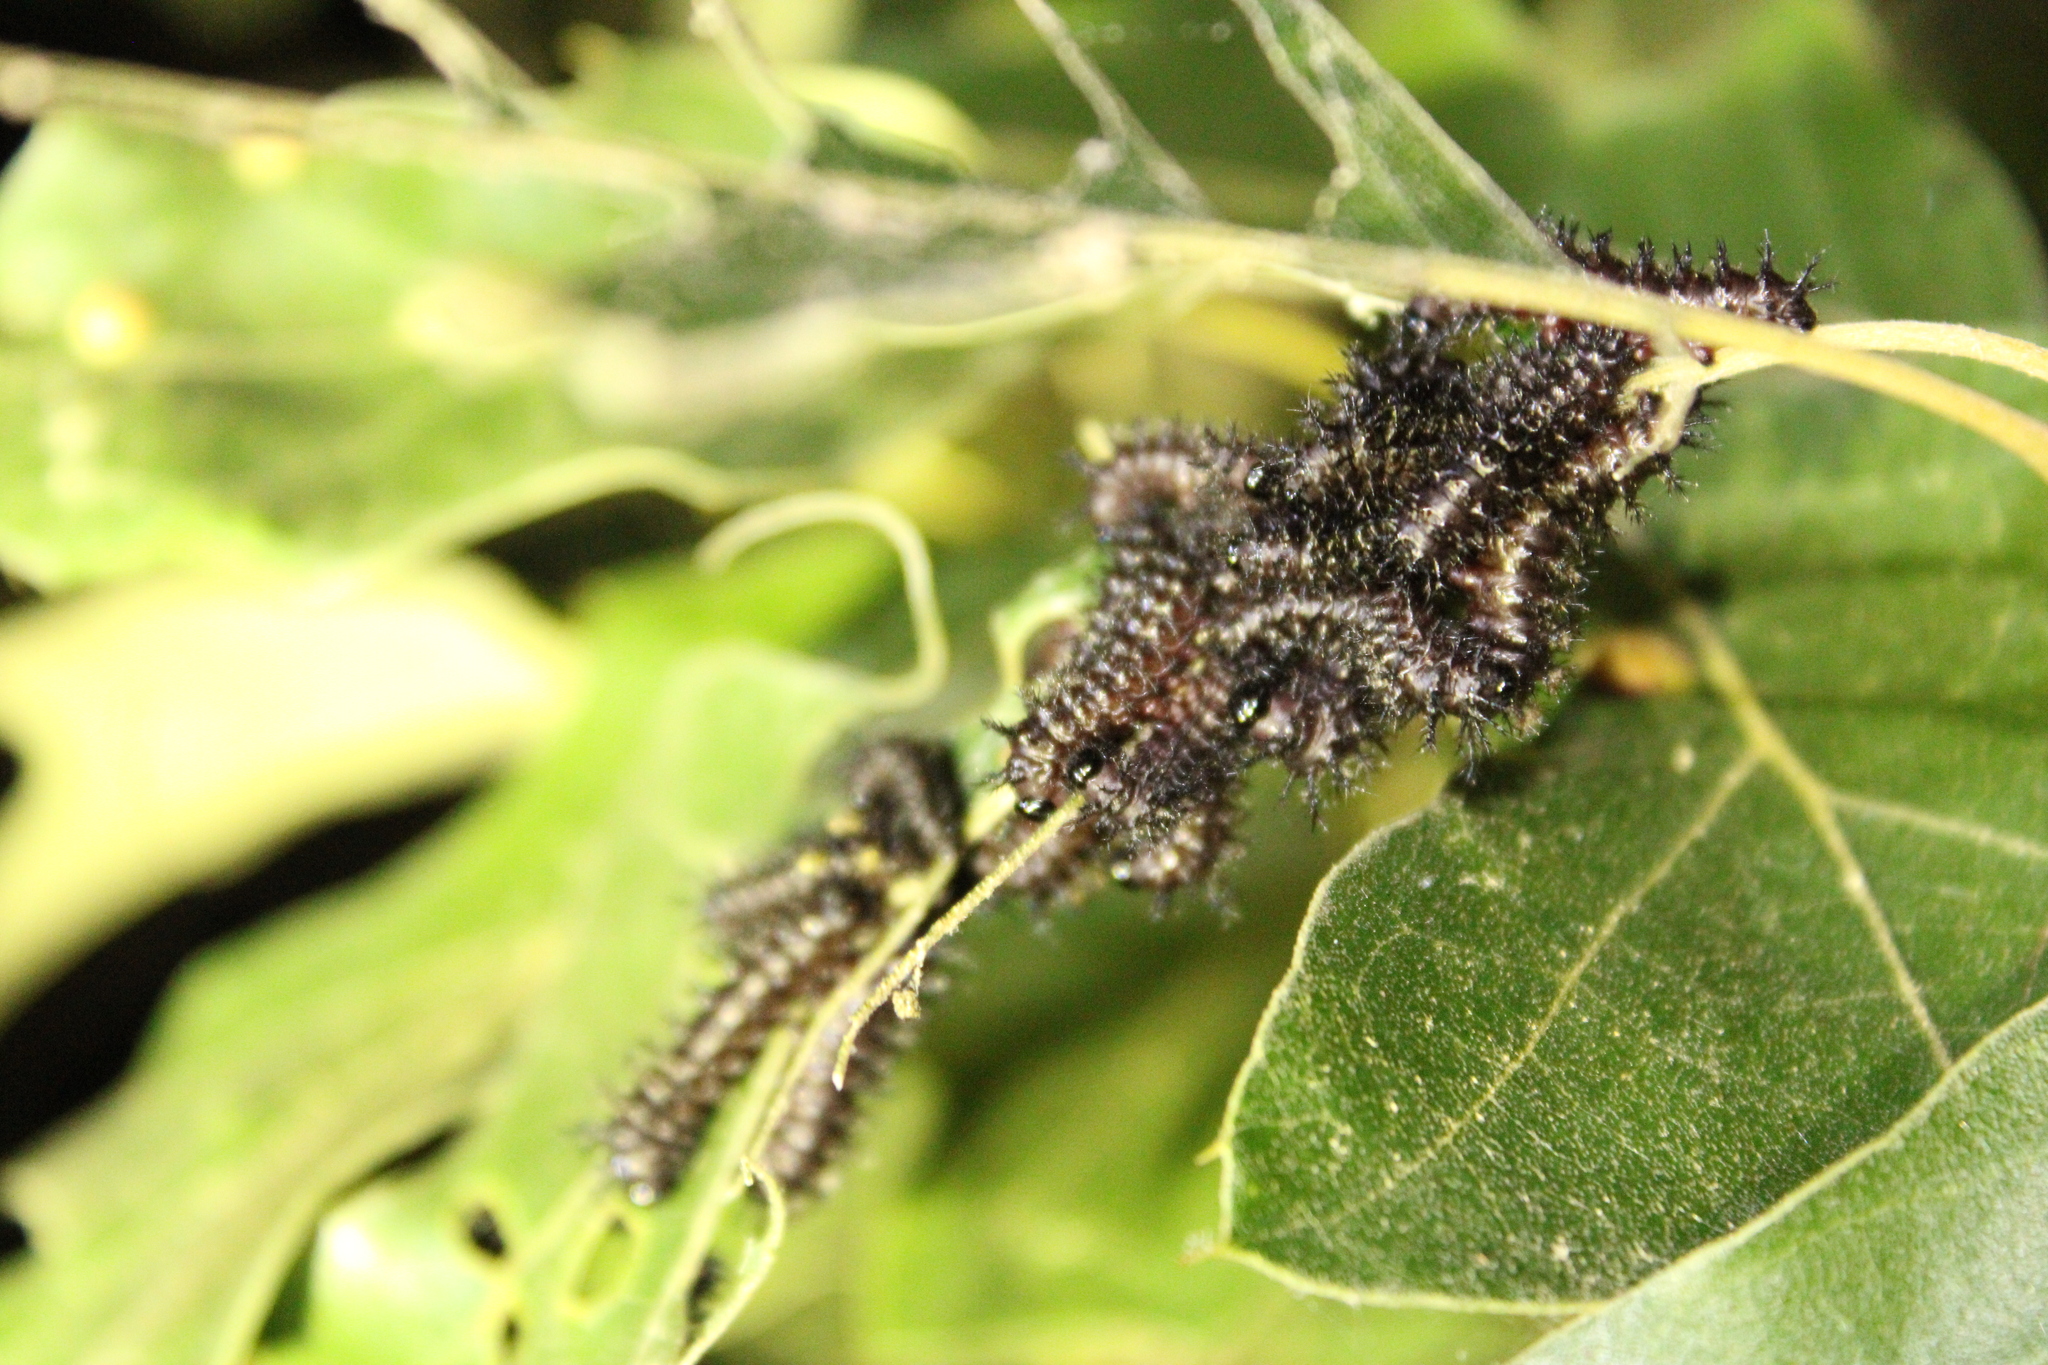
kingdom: Animalia
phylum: Arthropoda
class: Insecta
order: Lepidoptera
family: Saturniidae
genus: Hemileuca
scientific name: Hemileuca maia
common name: Eastern buckmoth
